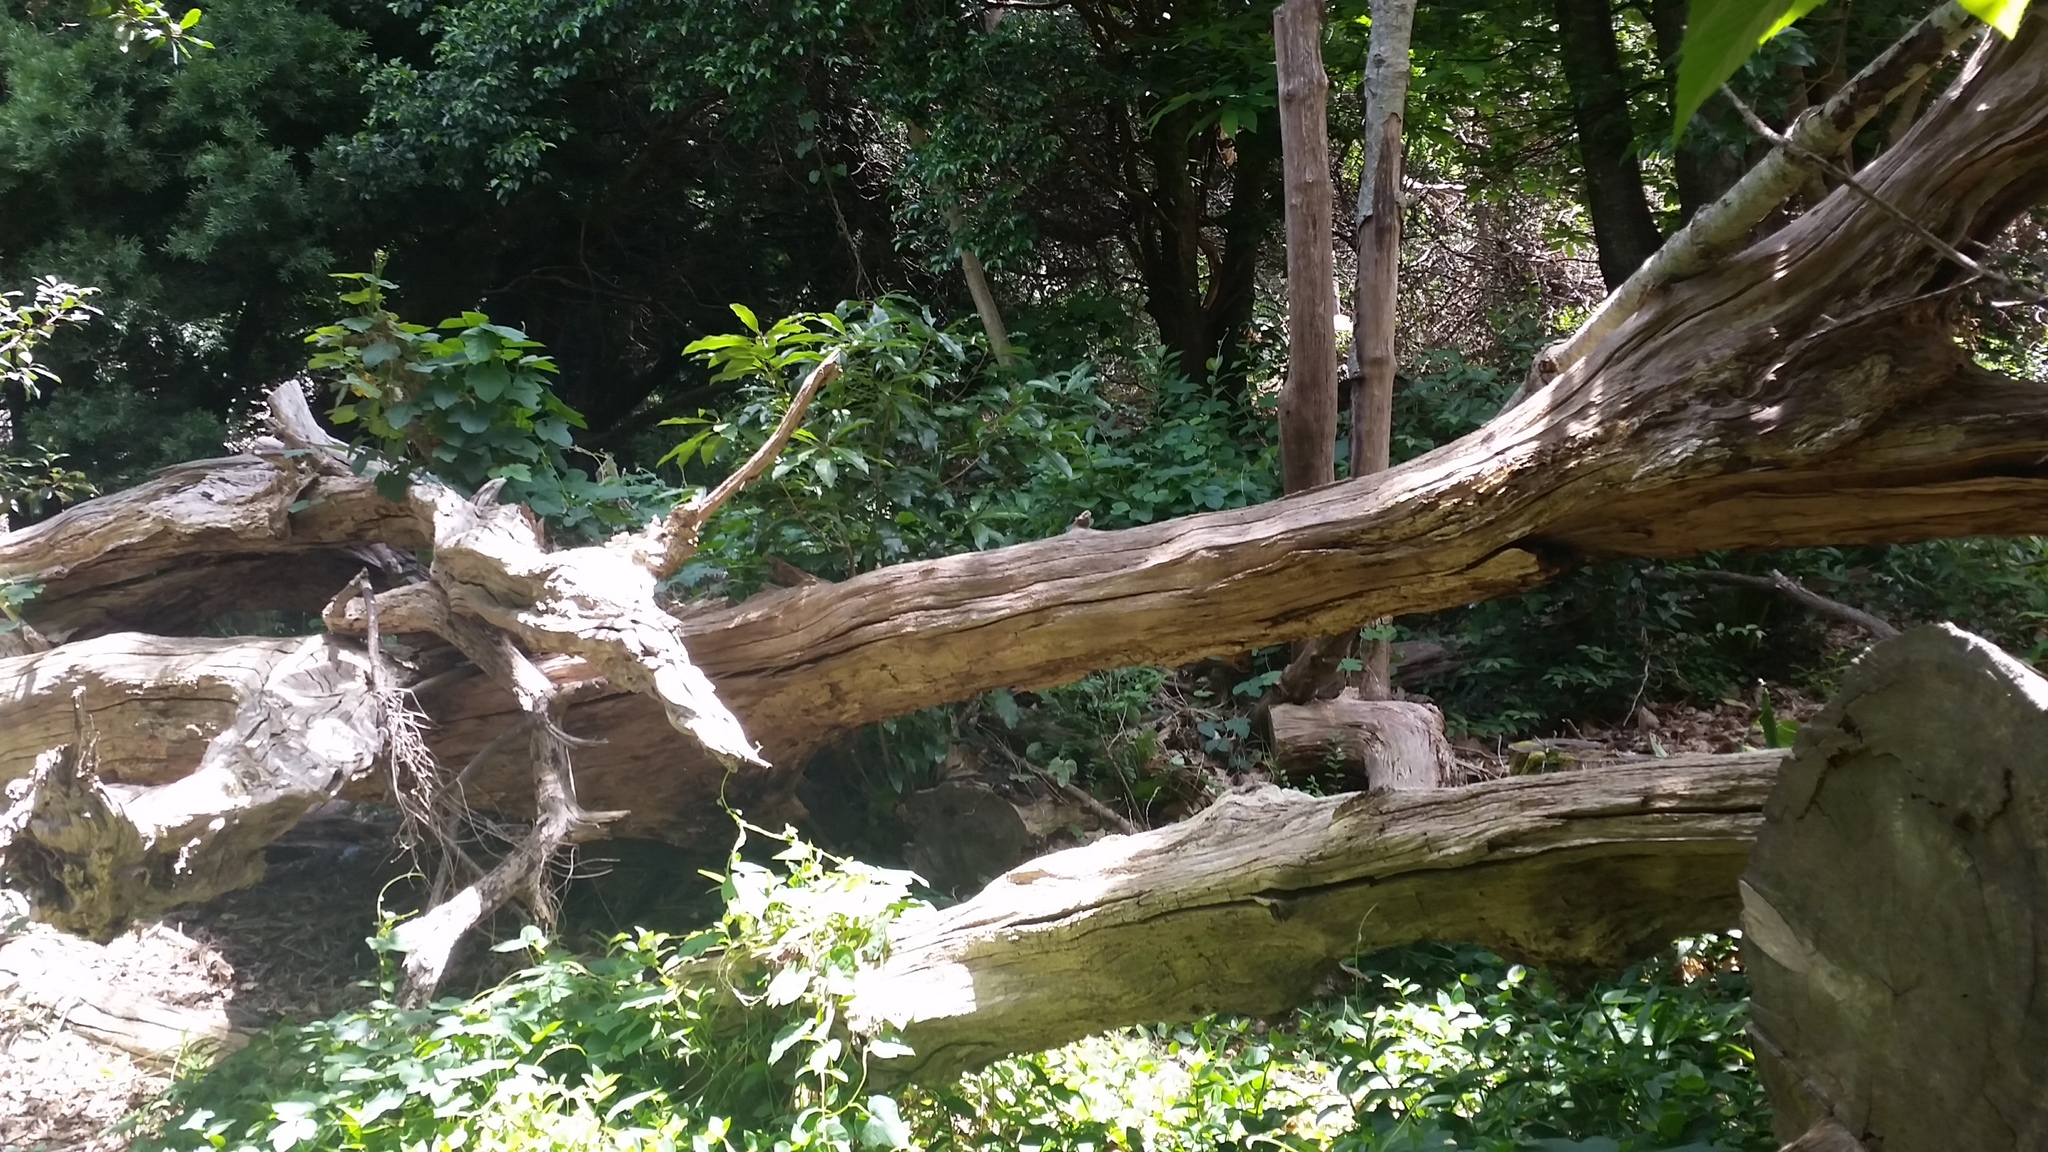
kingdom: Plantae
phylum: Tracheophyta
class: Magnoliopsida
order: Apiales
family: Pittosporaceae
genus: Pittosporum
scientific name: Pittosporum undulatum
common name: Australian cheesewood
